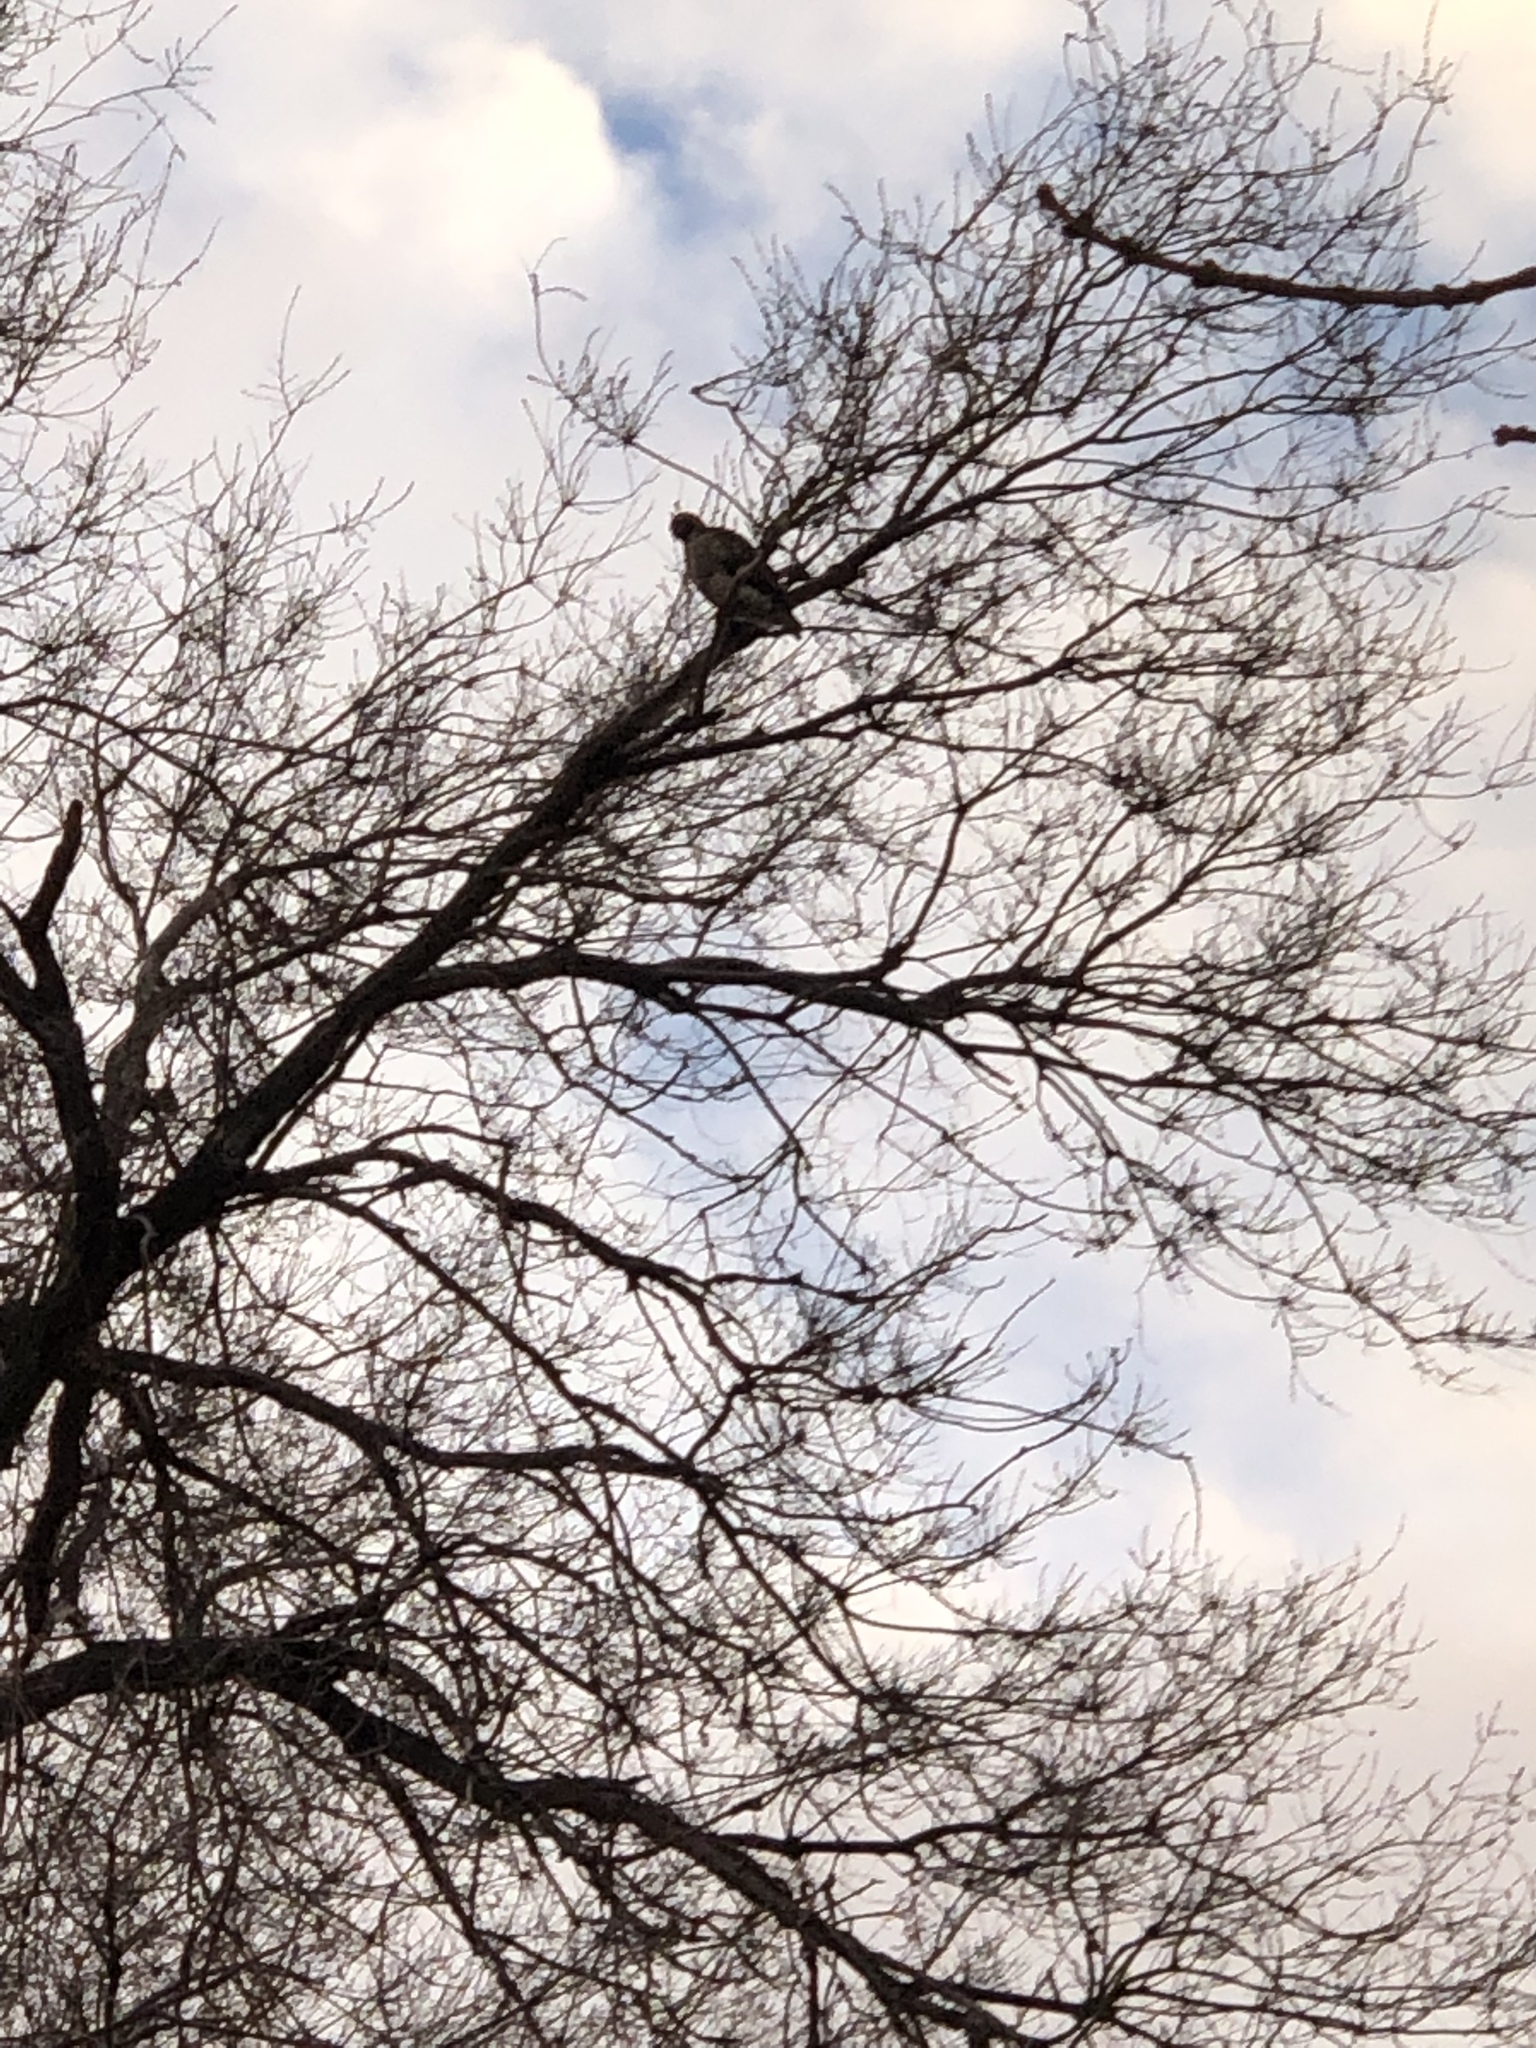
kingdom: Animalia
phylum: Chordata
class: Aves
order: Accipitriformes
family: Accipitridae
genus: Buteo
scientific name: Buteo jamaicensis
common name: Red-tailed hawk
